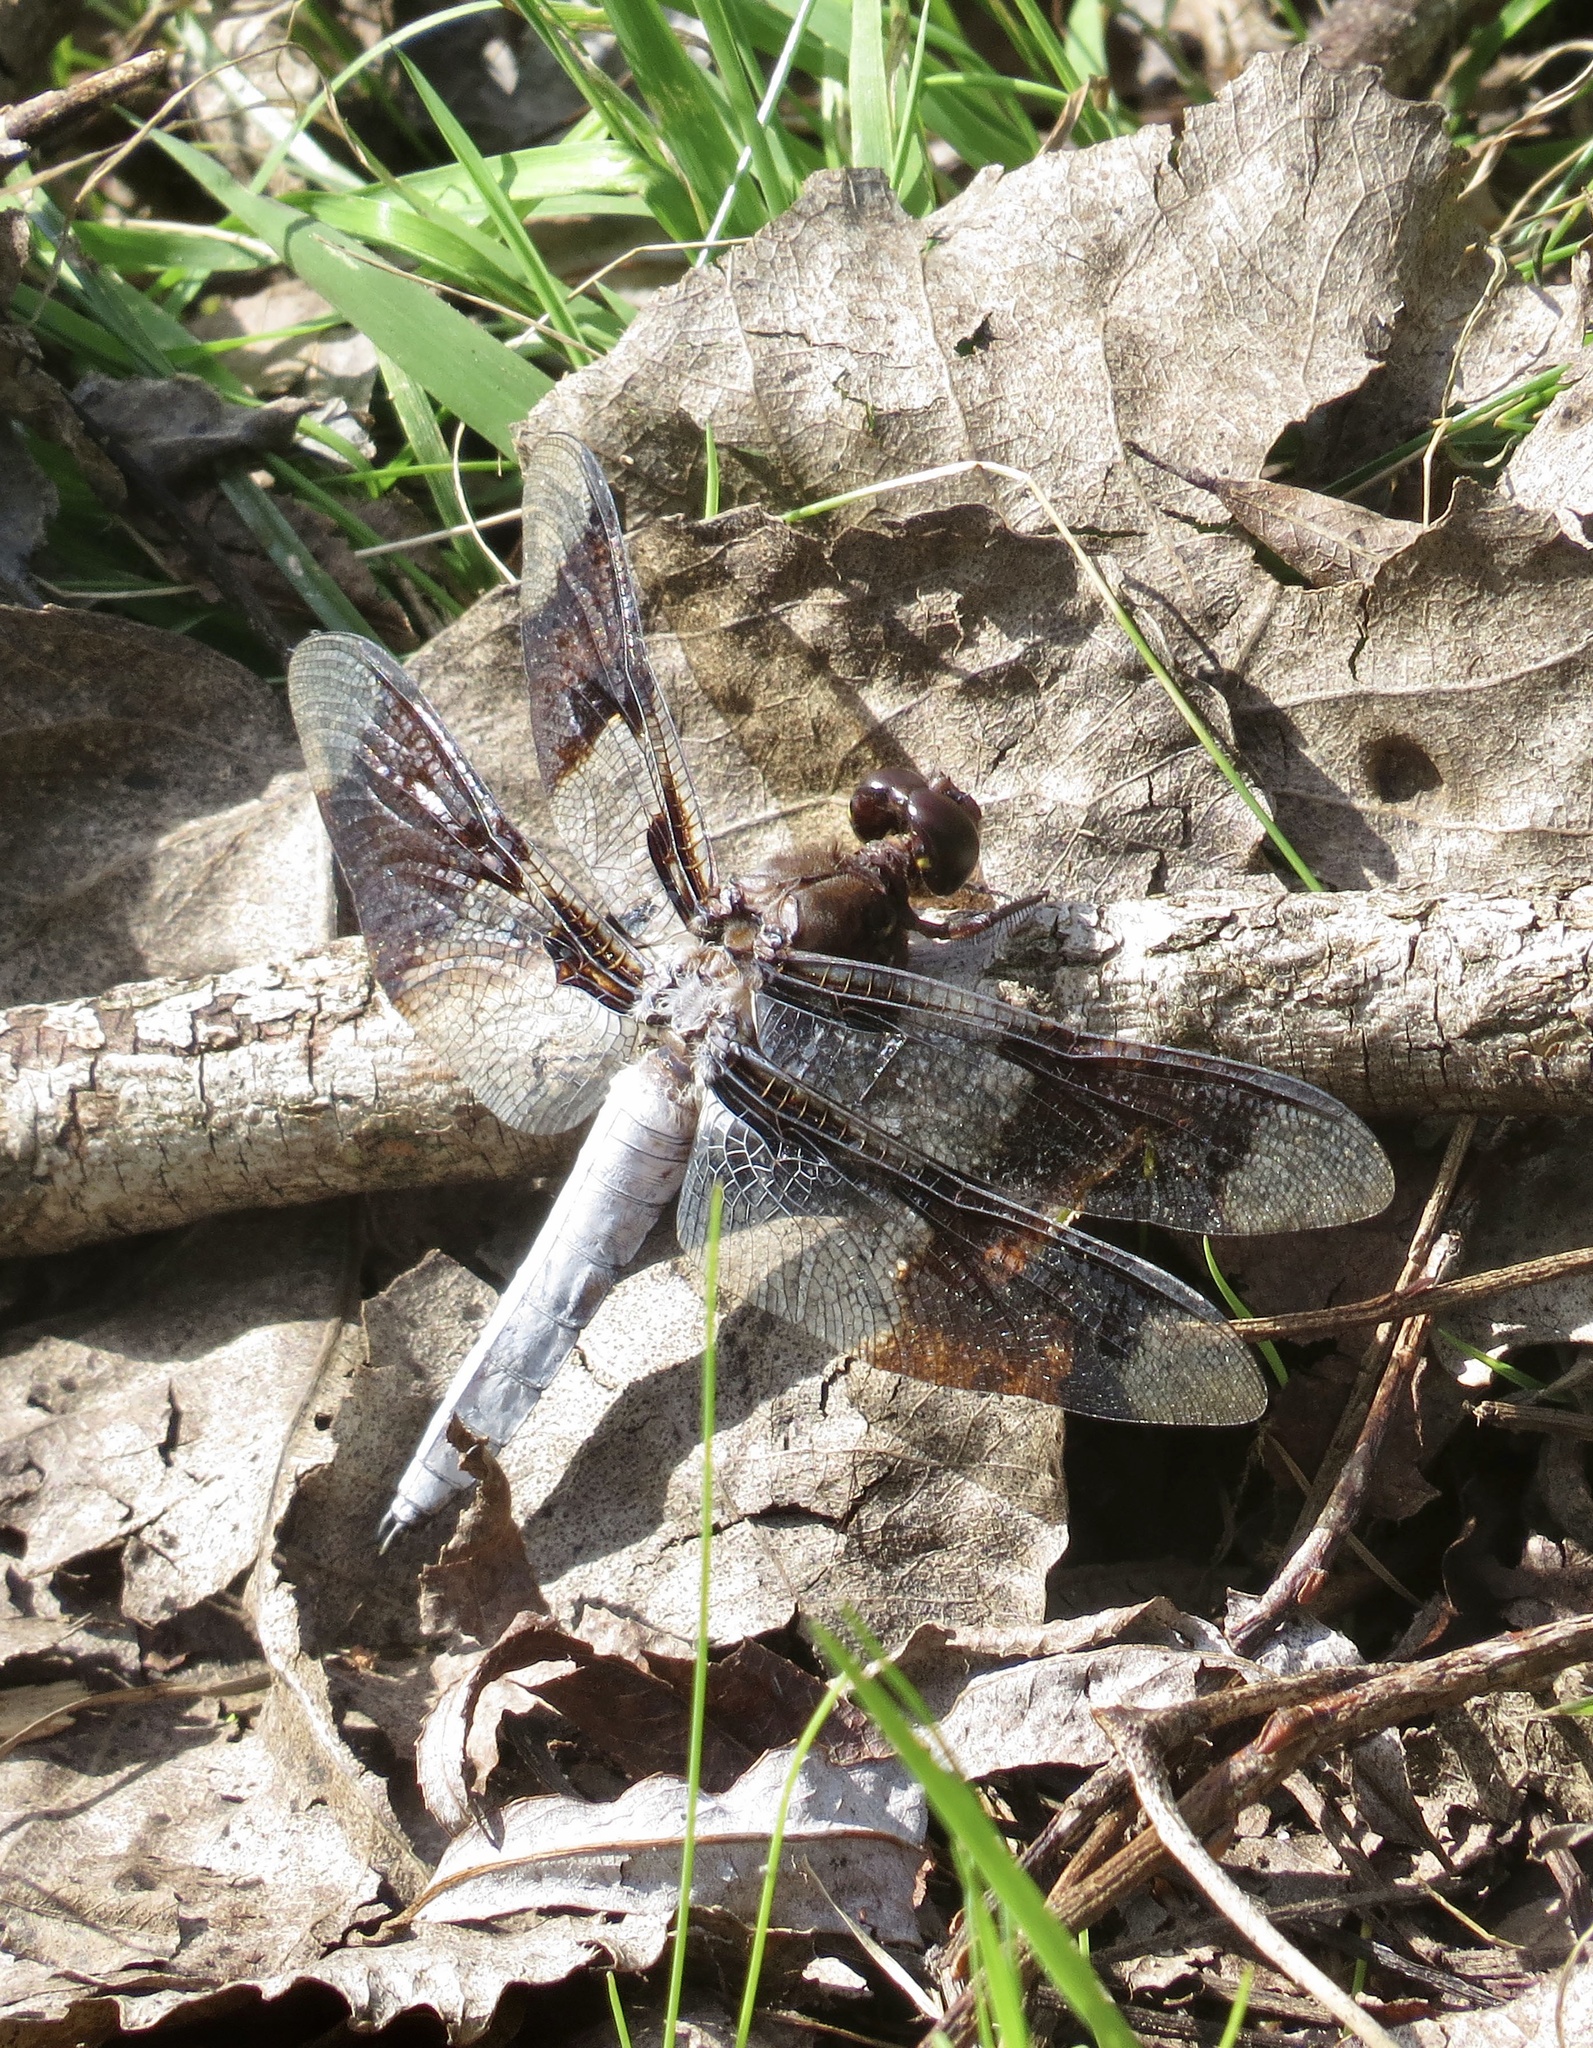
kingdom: Animalia
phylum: Arthropoda
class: Insecta
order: Odonata
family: Libellulidae
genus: Plathemis
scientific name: Plathemis lydia
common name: Common whitetail
